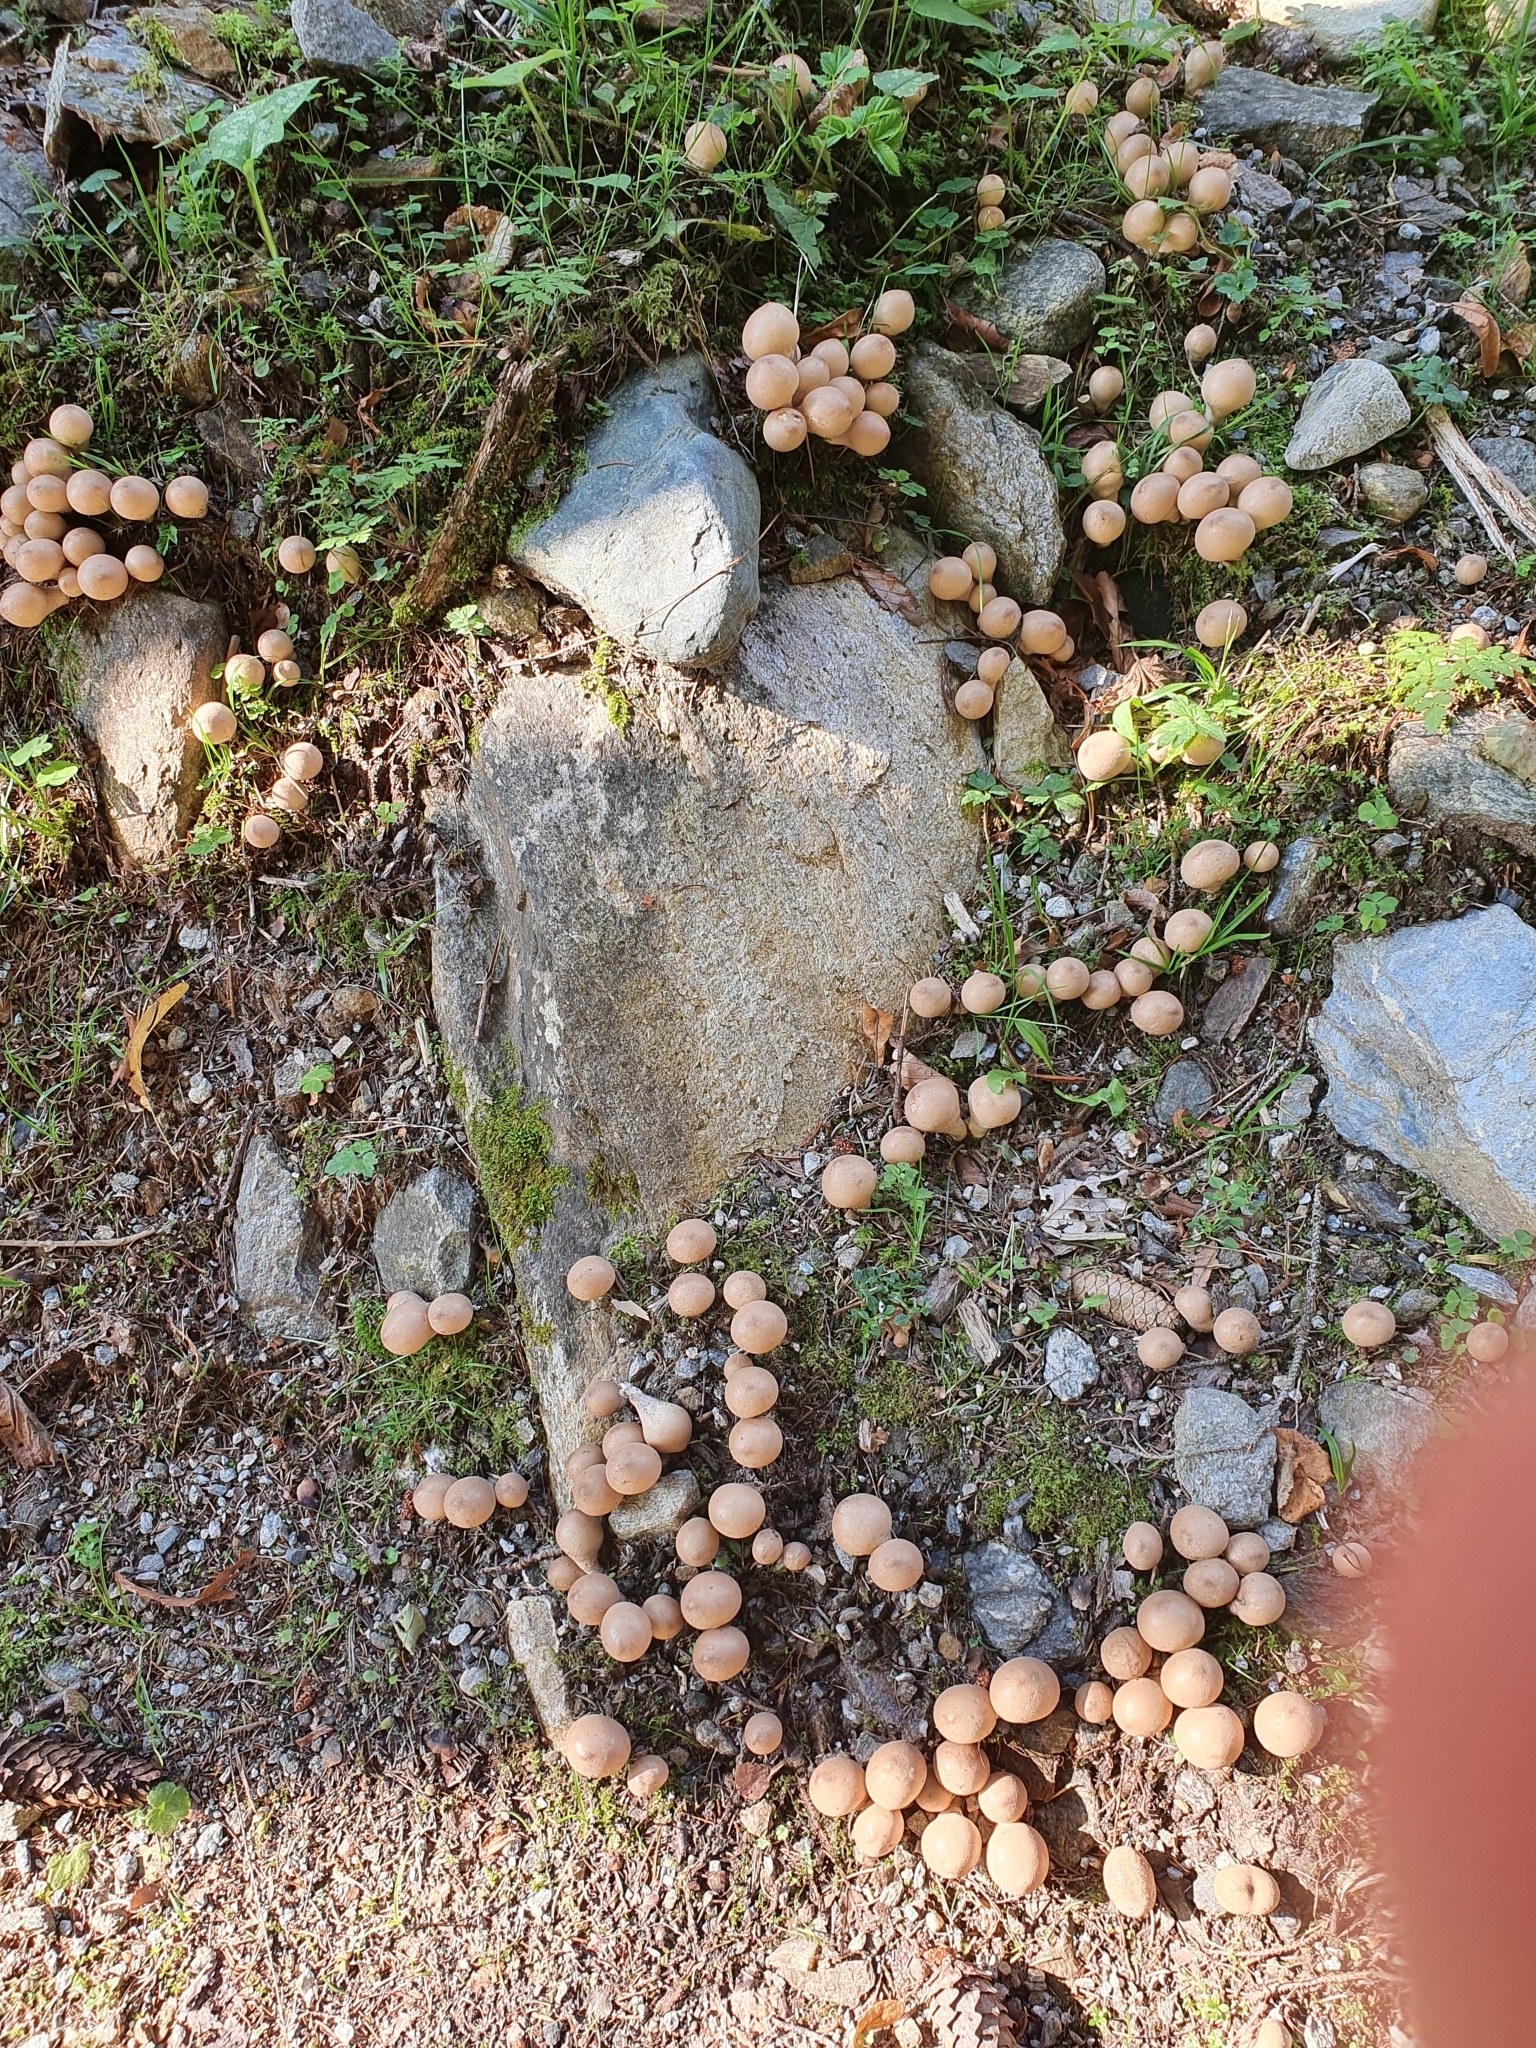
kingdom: Fungi
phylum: Basidiomycota
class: Agaricomycetes
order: Agaricales
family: Lycoperdaceae
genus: Apioperdon
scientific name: Apioperdon pyriforme
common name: Pear-shaped puffball
